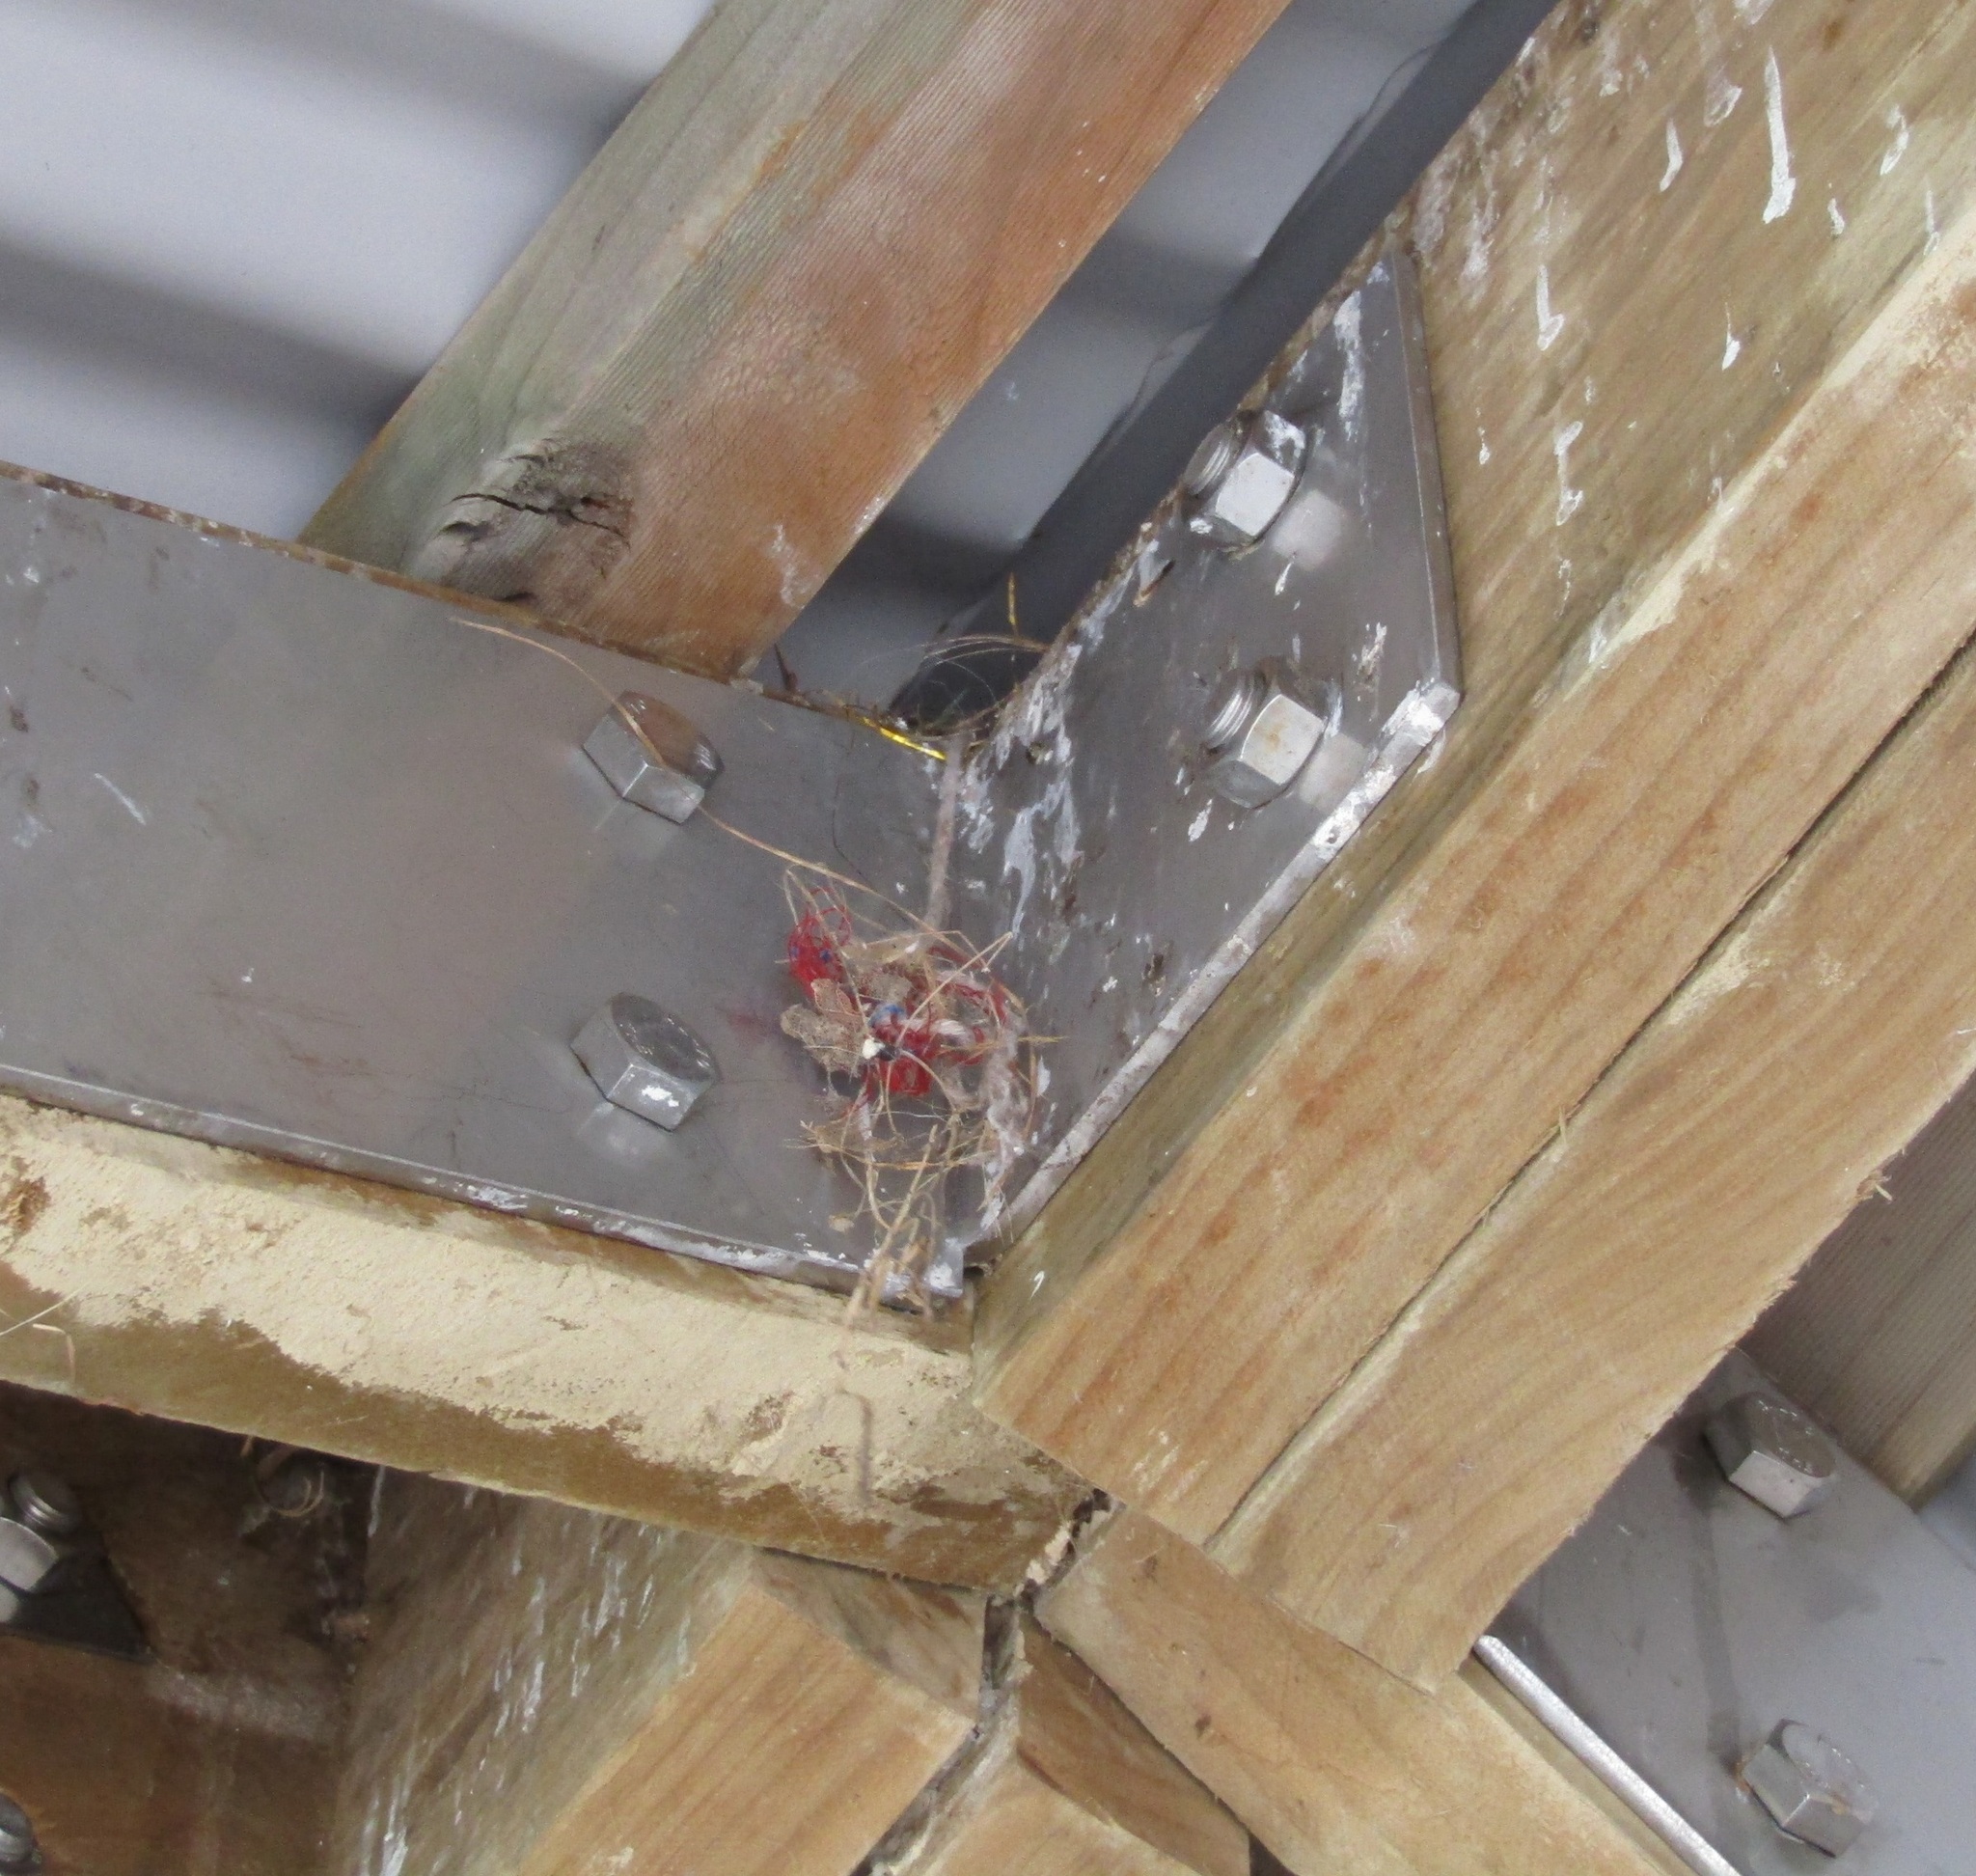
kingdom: Animalia
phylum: Chordata
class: Aves
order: Passeriformes
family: Passeridae
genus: Passer
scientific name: Passer domesticus
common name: House sparrow
